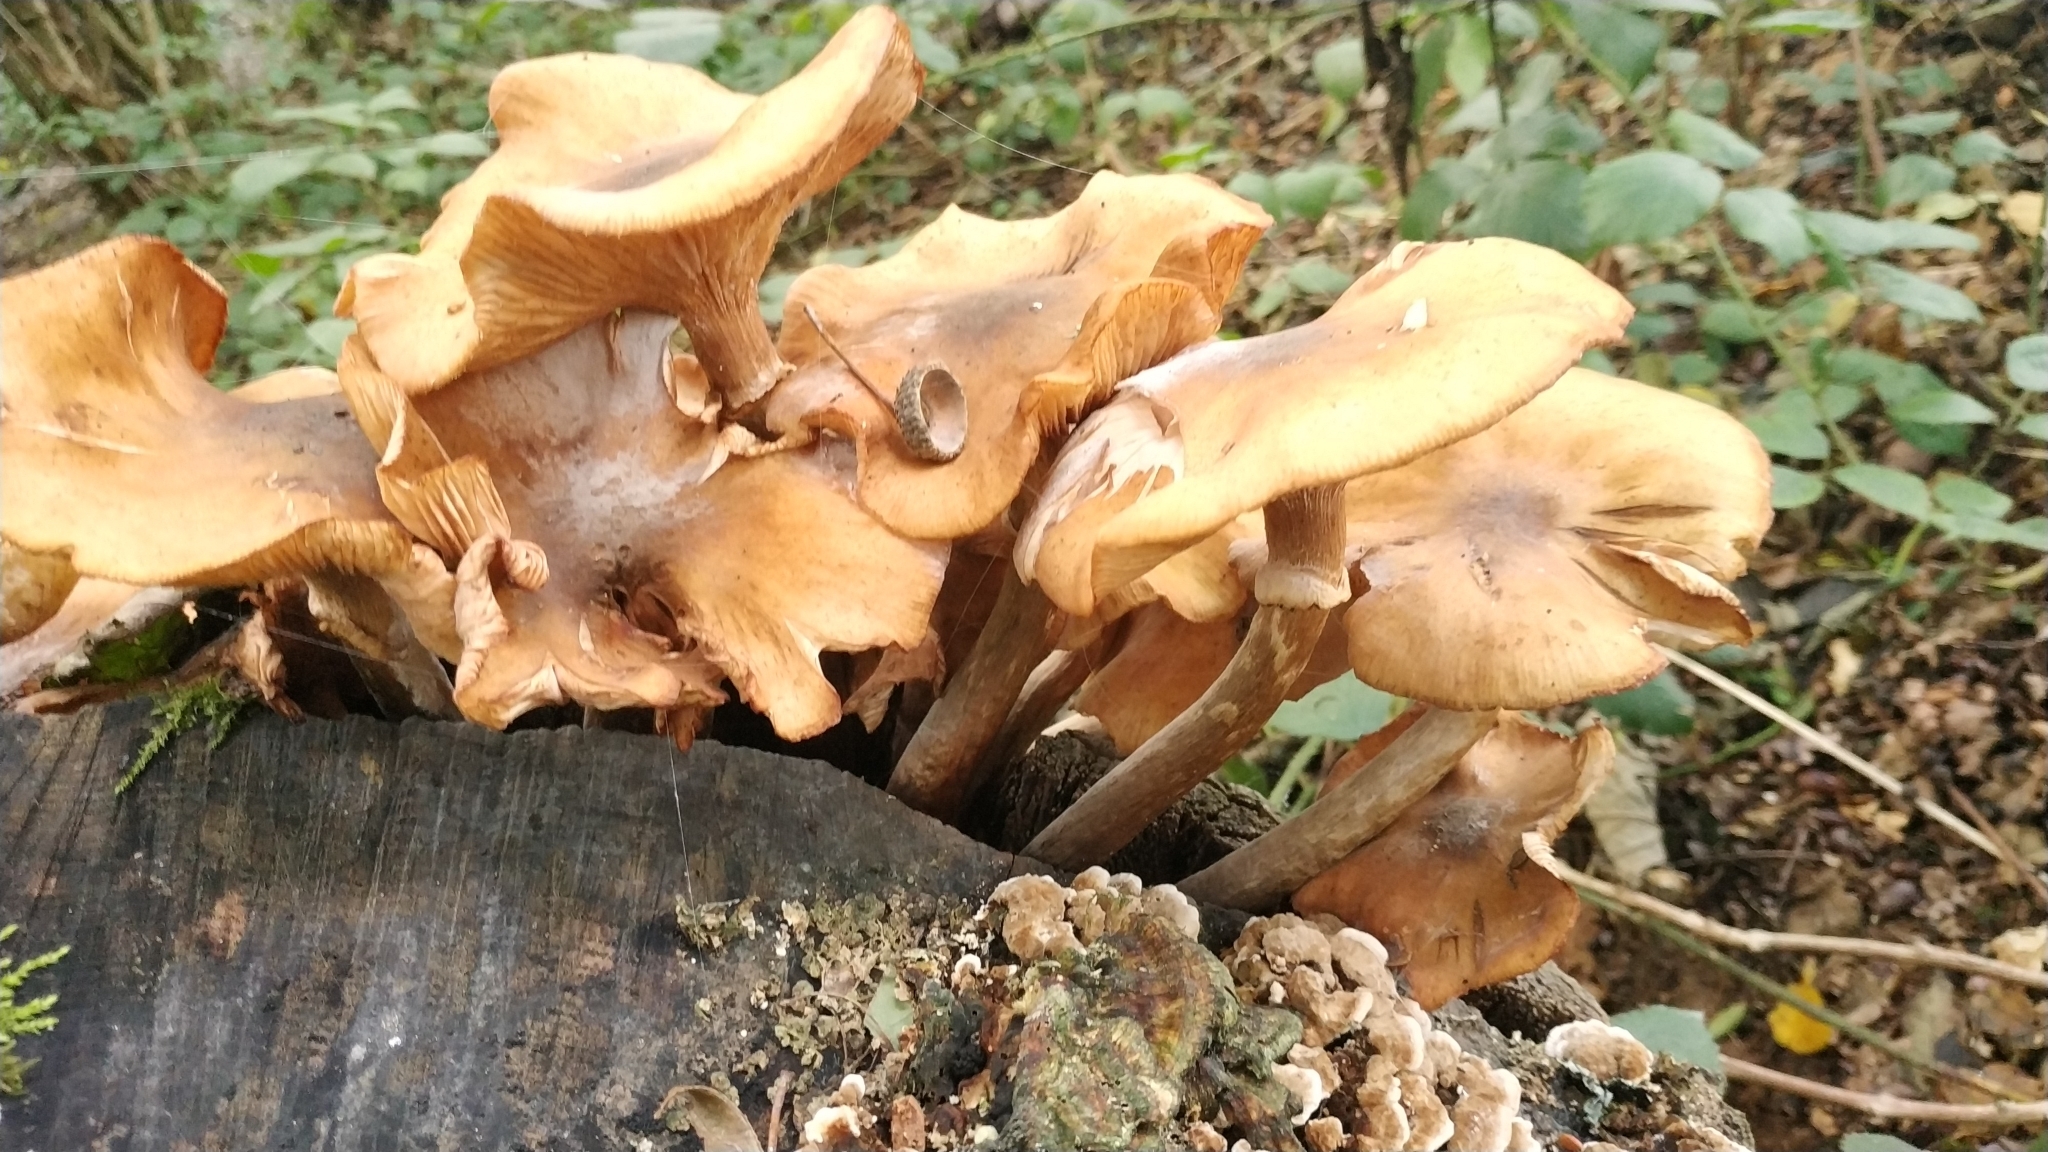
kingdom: Fungi
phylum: Basidiomycota
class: Agaricomycetes
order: Agaricales
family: Physalacriaceae
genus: Armillaria
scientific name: Armillaria mellea
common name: Honey fungus
